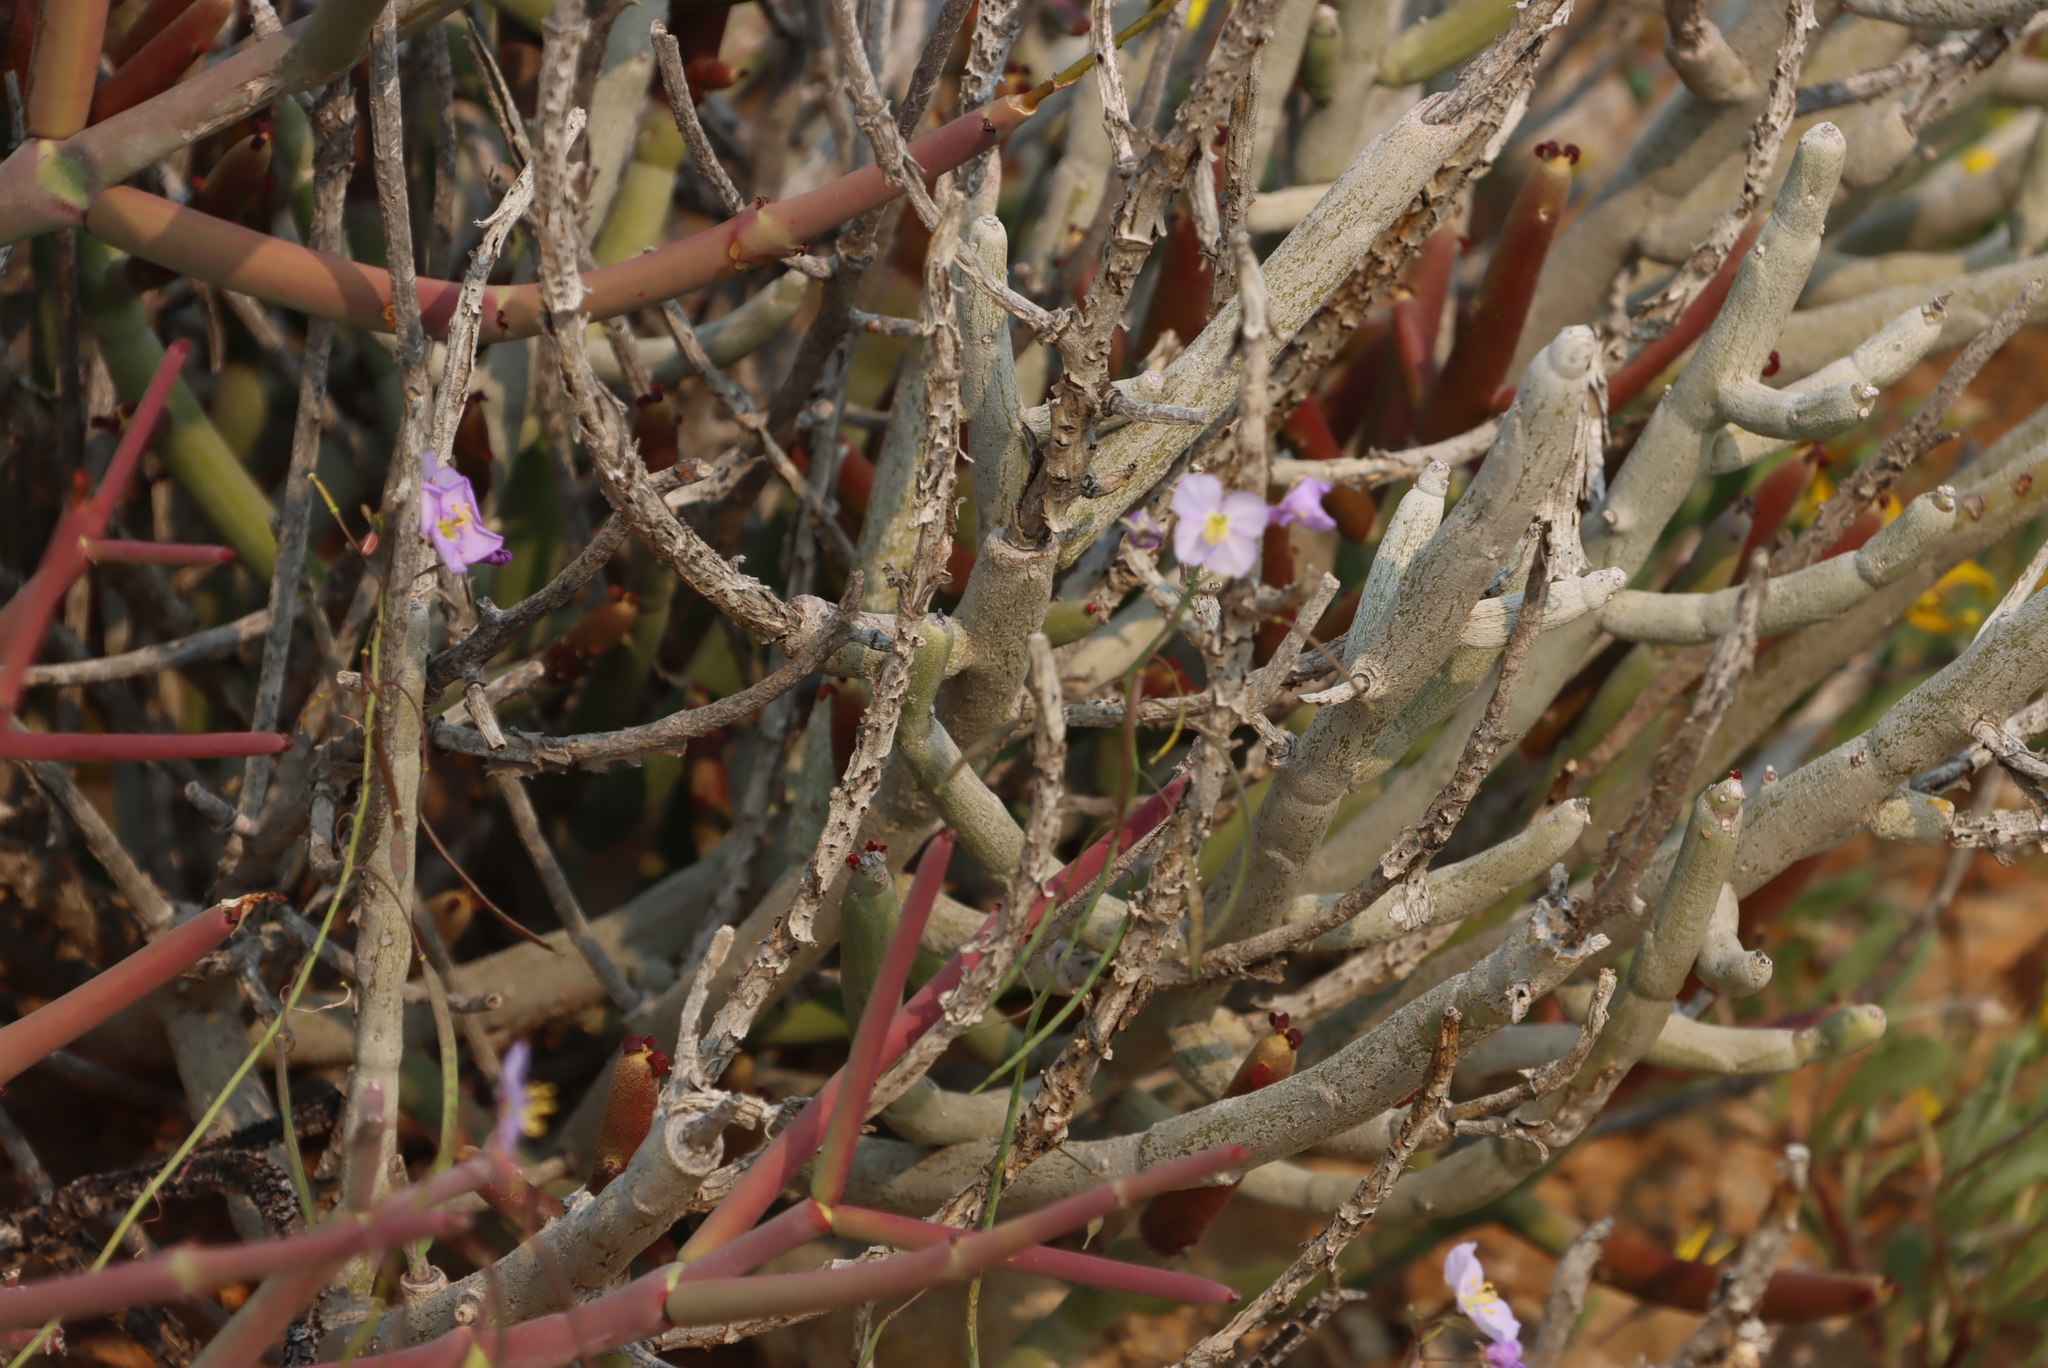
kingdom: Plantae
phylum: Tracheophyta
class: Magnoliopsida
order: Brassicales
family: Brassicaceae
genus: Heliophila
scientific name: Heliophila trifurca
